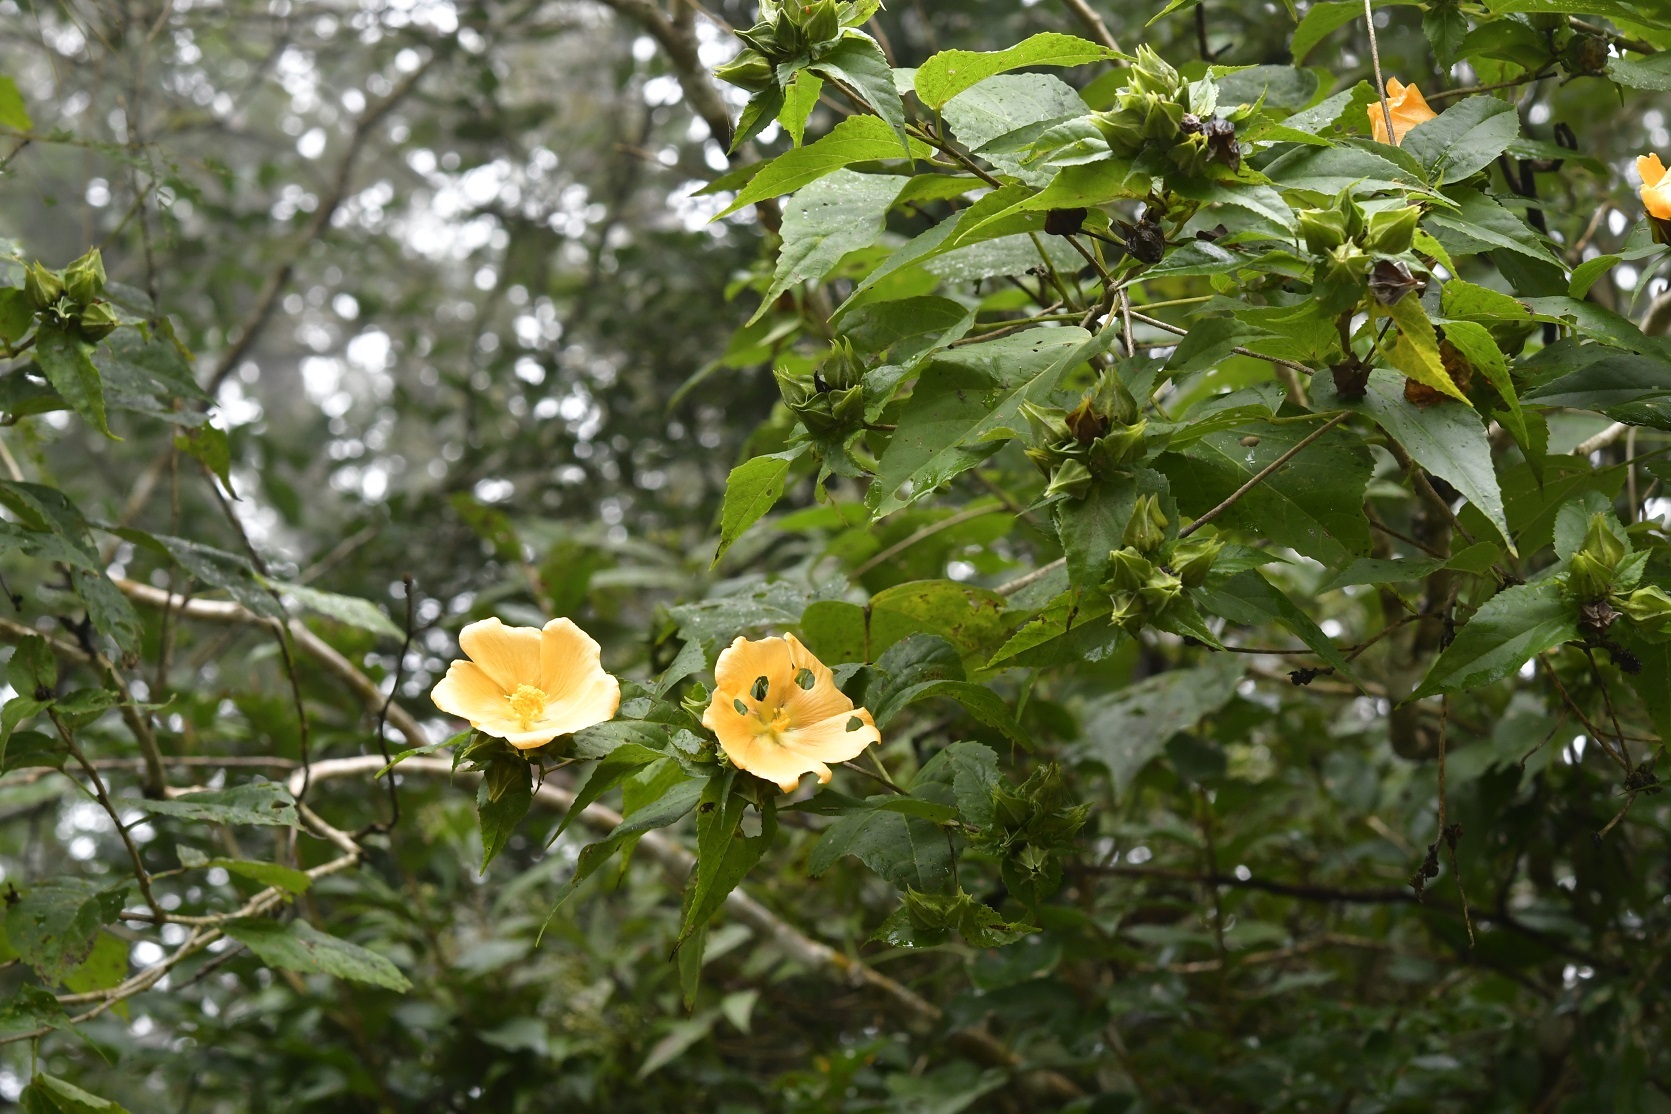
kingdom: Plantae
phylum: Tracheophyta
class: Magnoliopsida
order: Malvales
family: Malvaceae
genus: Dendrosida
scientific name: Dendrosida sharpiana
